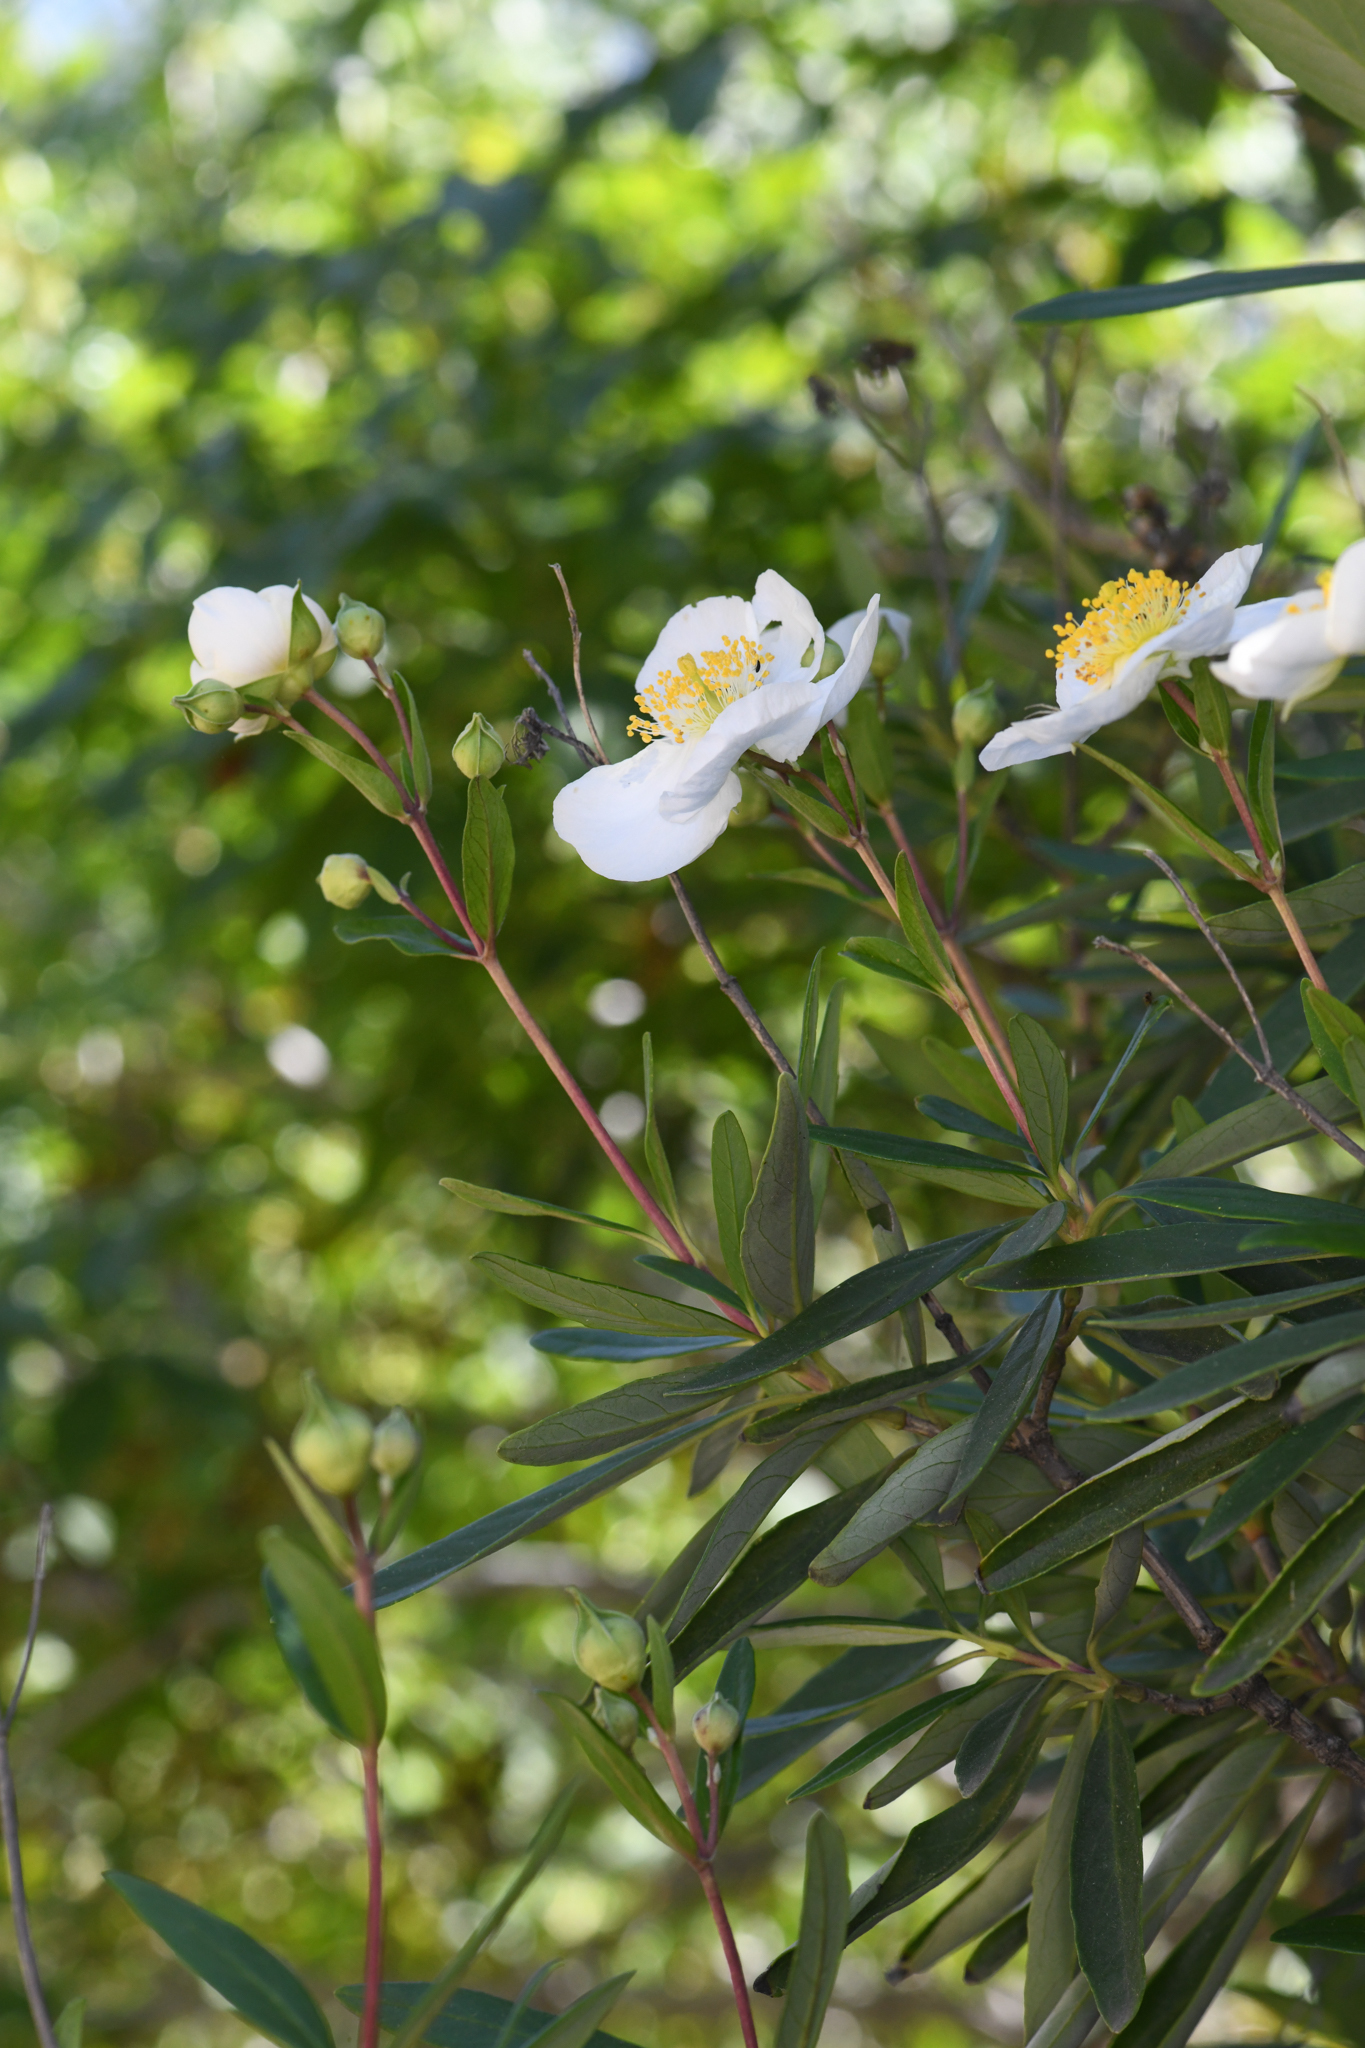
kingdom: Plantae
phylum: Tracheophyta
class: Magnoliopsida
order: Cornales
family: Hydrangeaceae
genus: Carpenteria
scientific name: Carpenteria californica
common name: Tree-anomone
